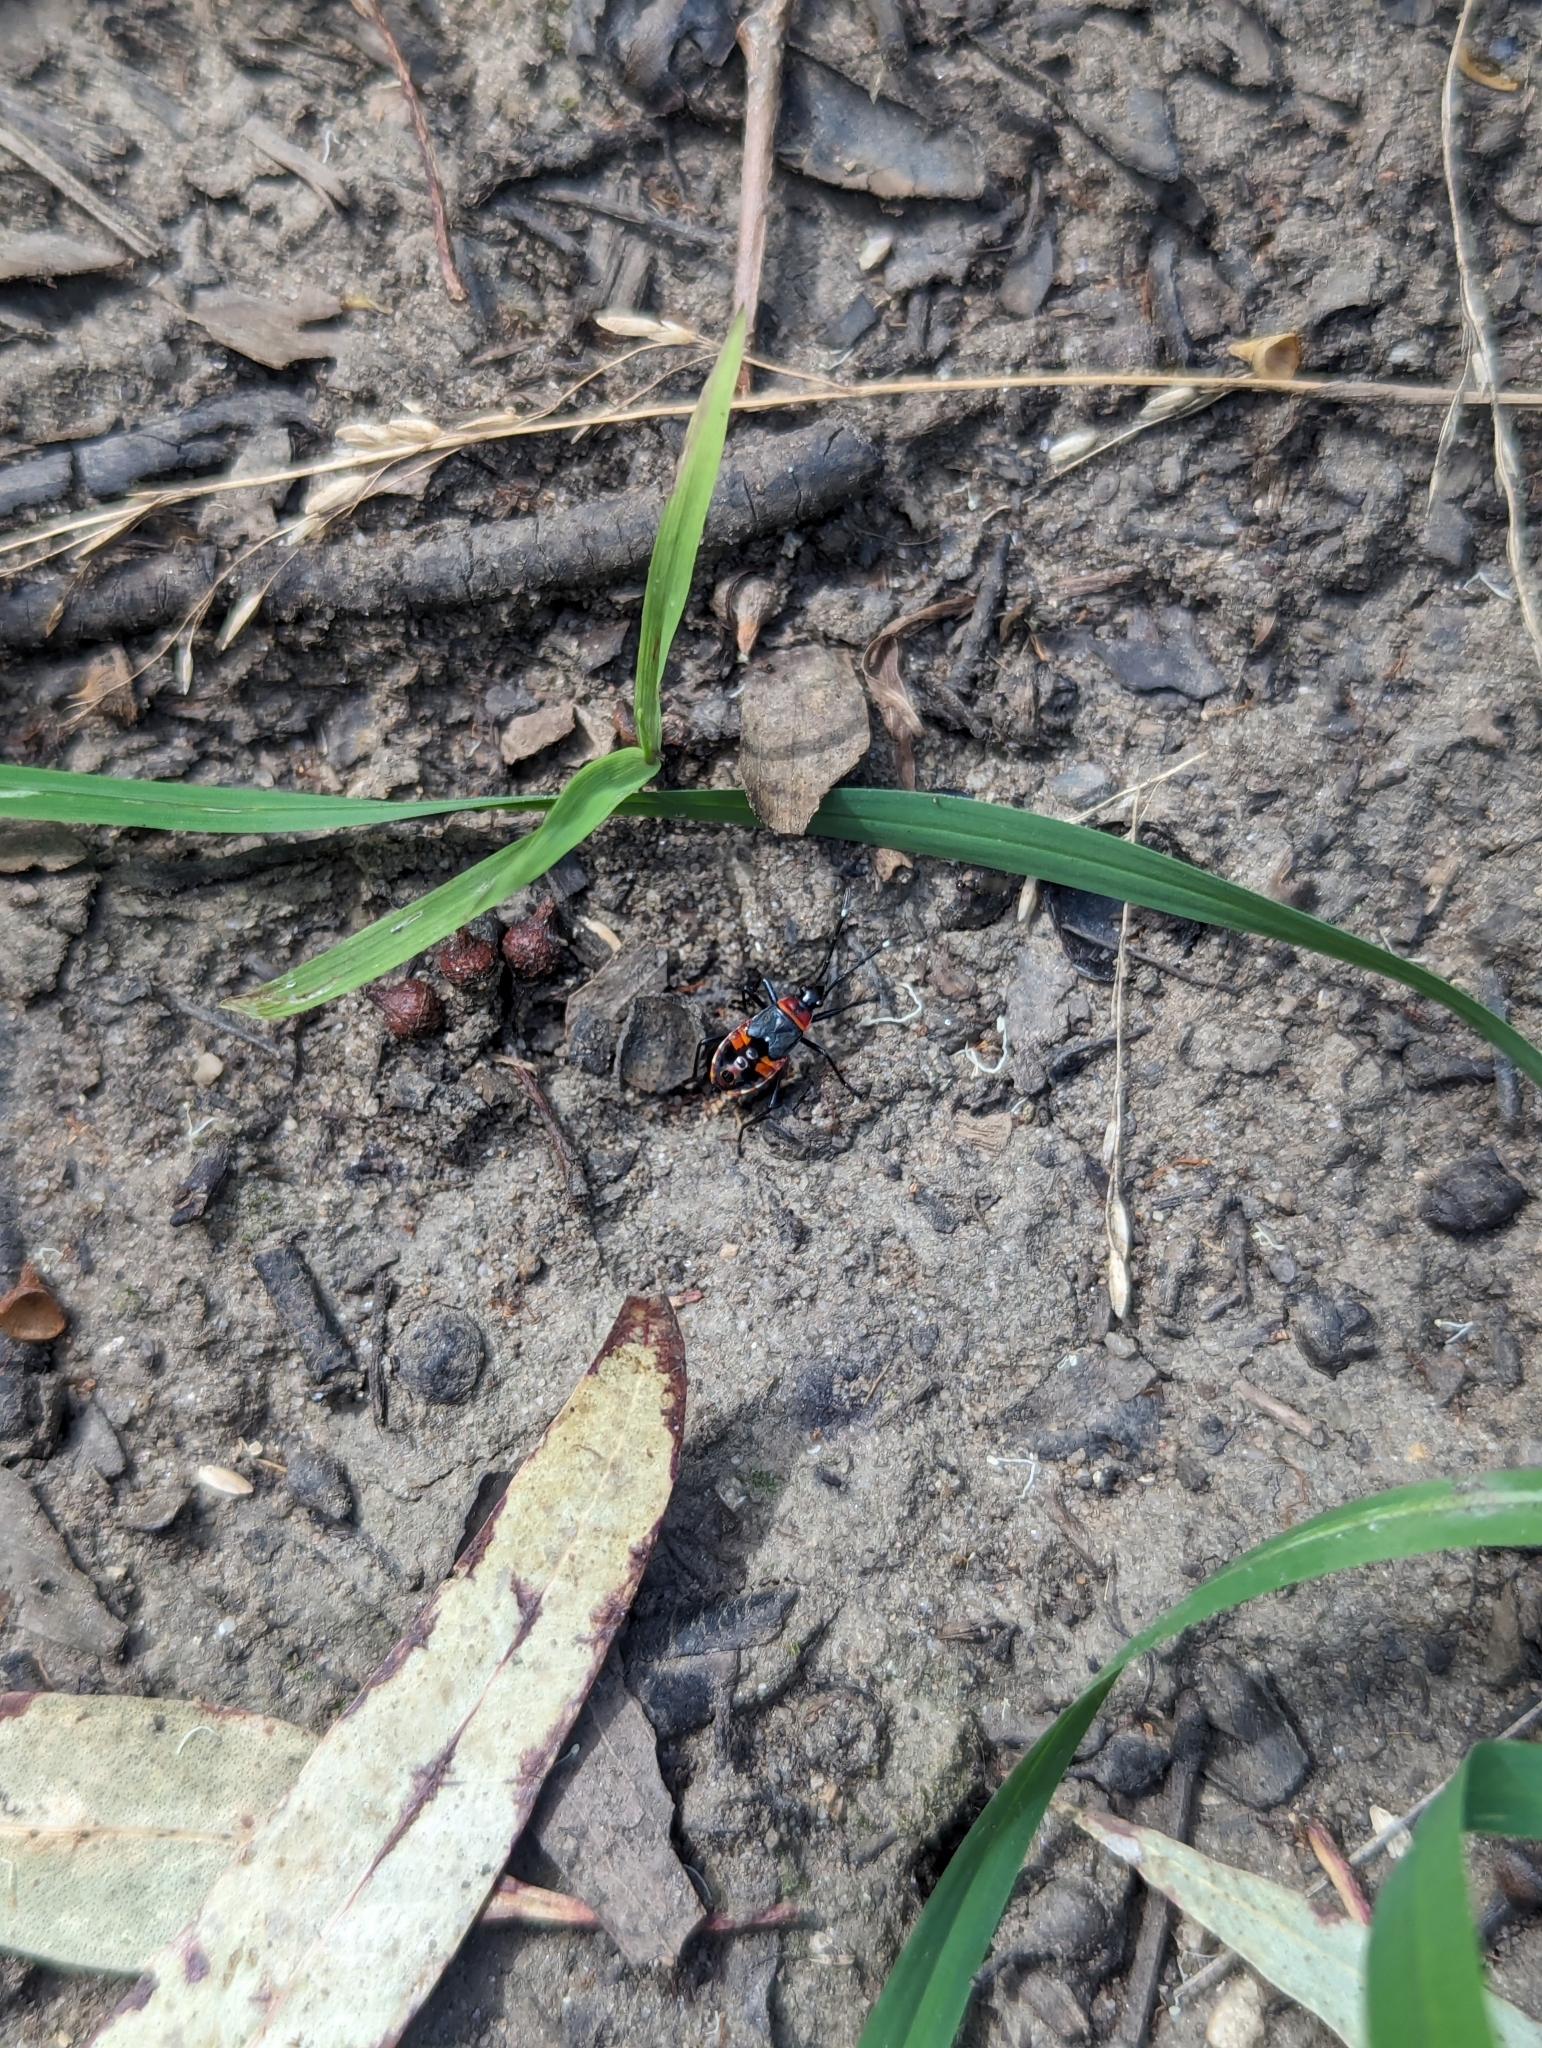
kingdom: Animalia
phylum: Arthropoda
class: Insecta
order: Hemiptera
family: Pyrrhocoridae
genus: Dindymus
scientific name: Dindymus
